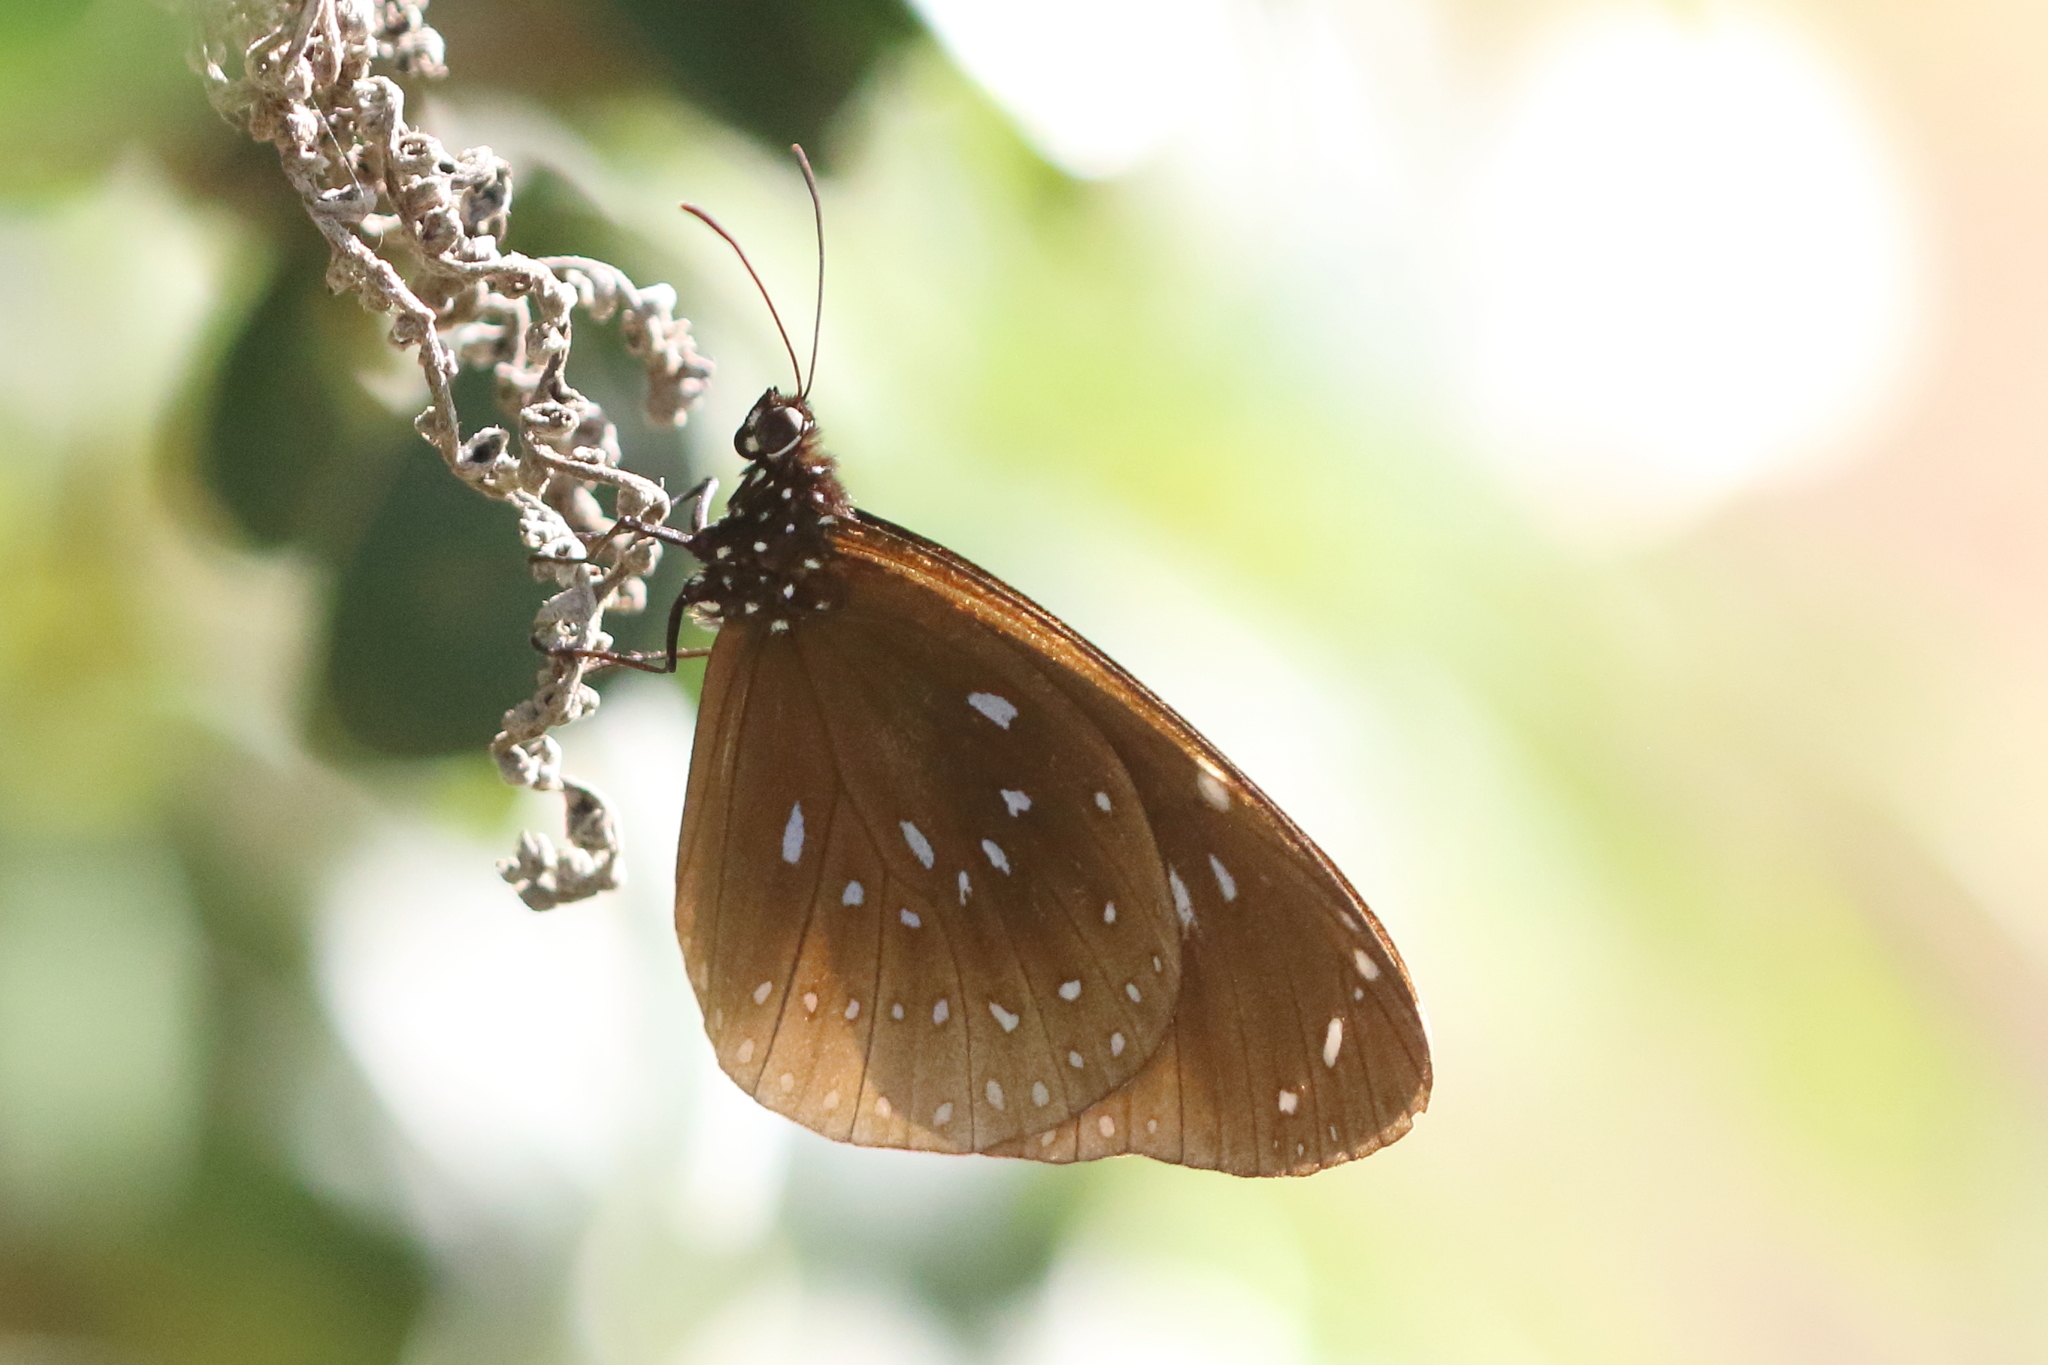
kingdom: Animalia
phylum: Arthropoda
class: Insecta
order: Lepidoptera
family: Nymphalidae
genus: Euploea
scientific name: Euploea lewinii
